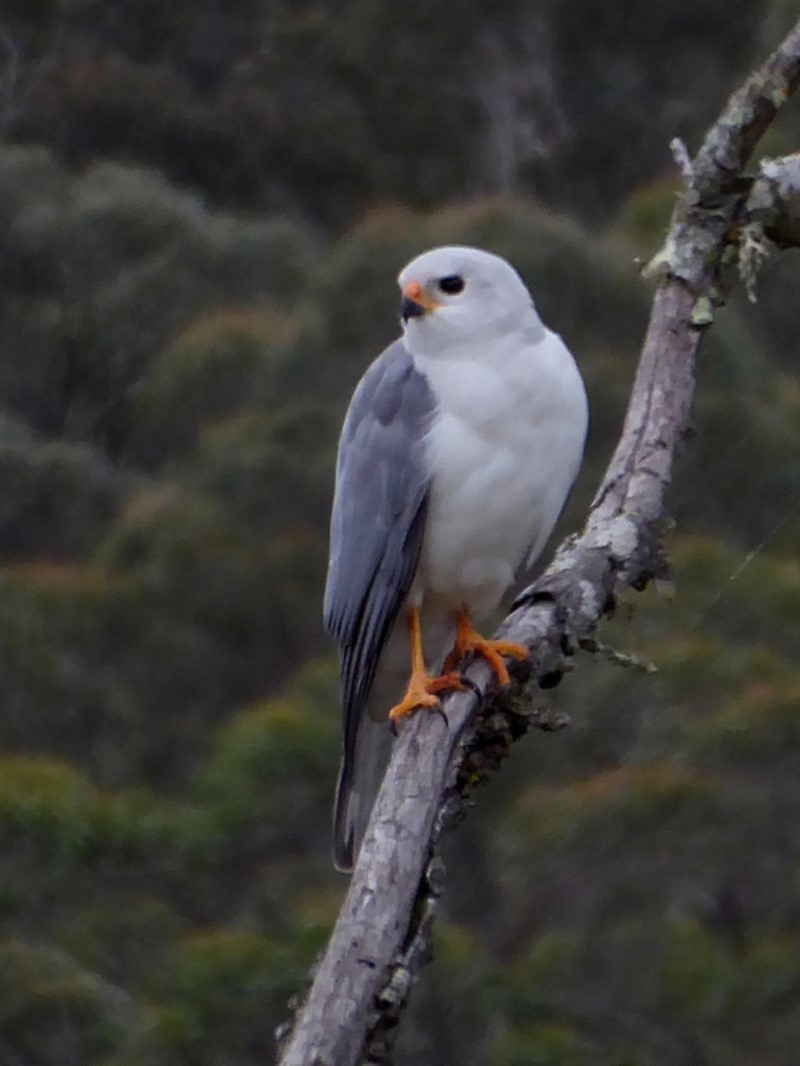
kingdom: Animalia
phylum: Chordata
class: Aves
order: Accipitriformes
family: Accipitridae
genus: Accipiter
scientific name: Accipiter novaehollandiae
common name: Grey goshawk
